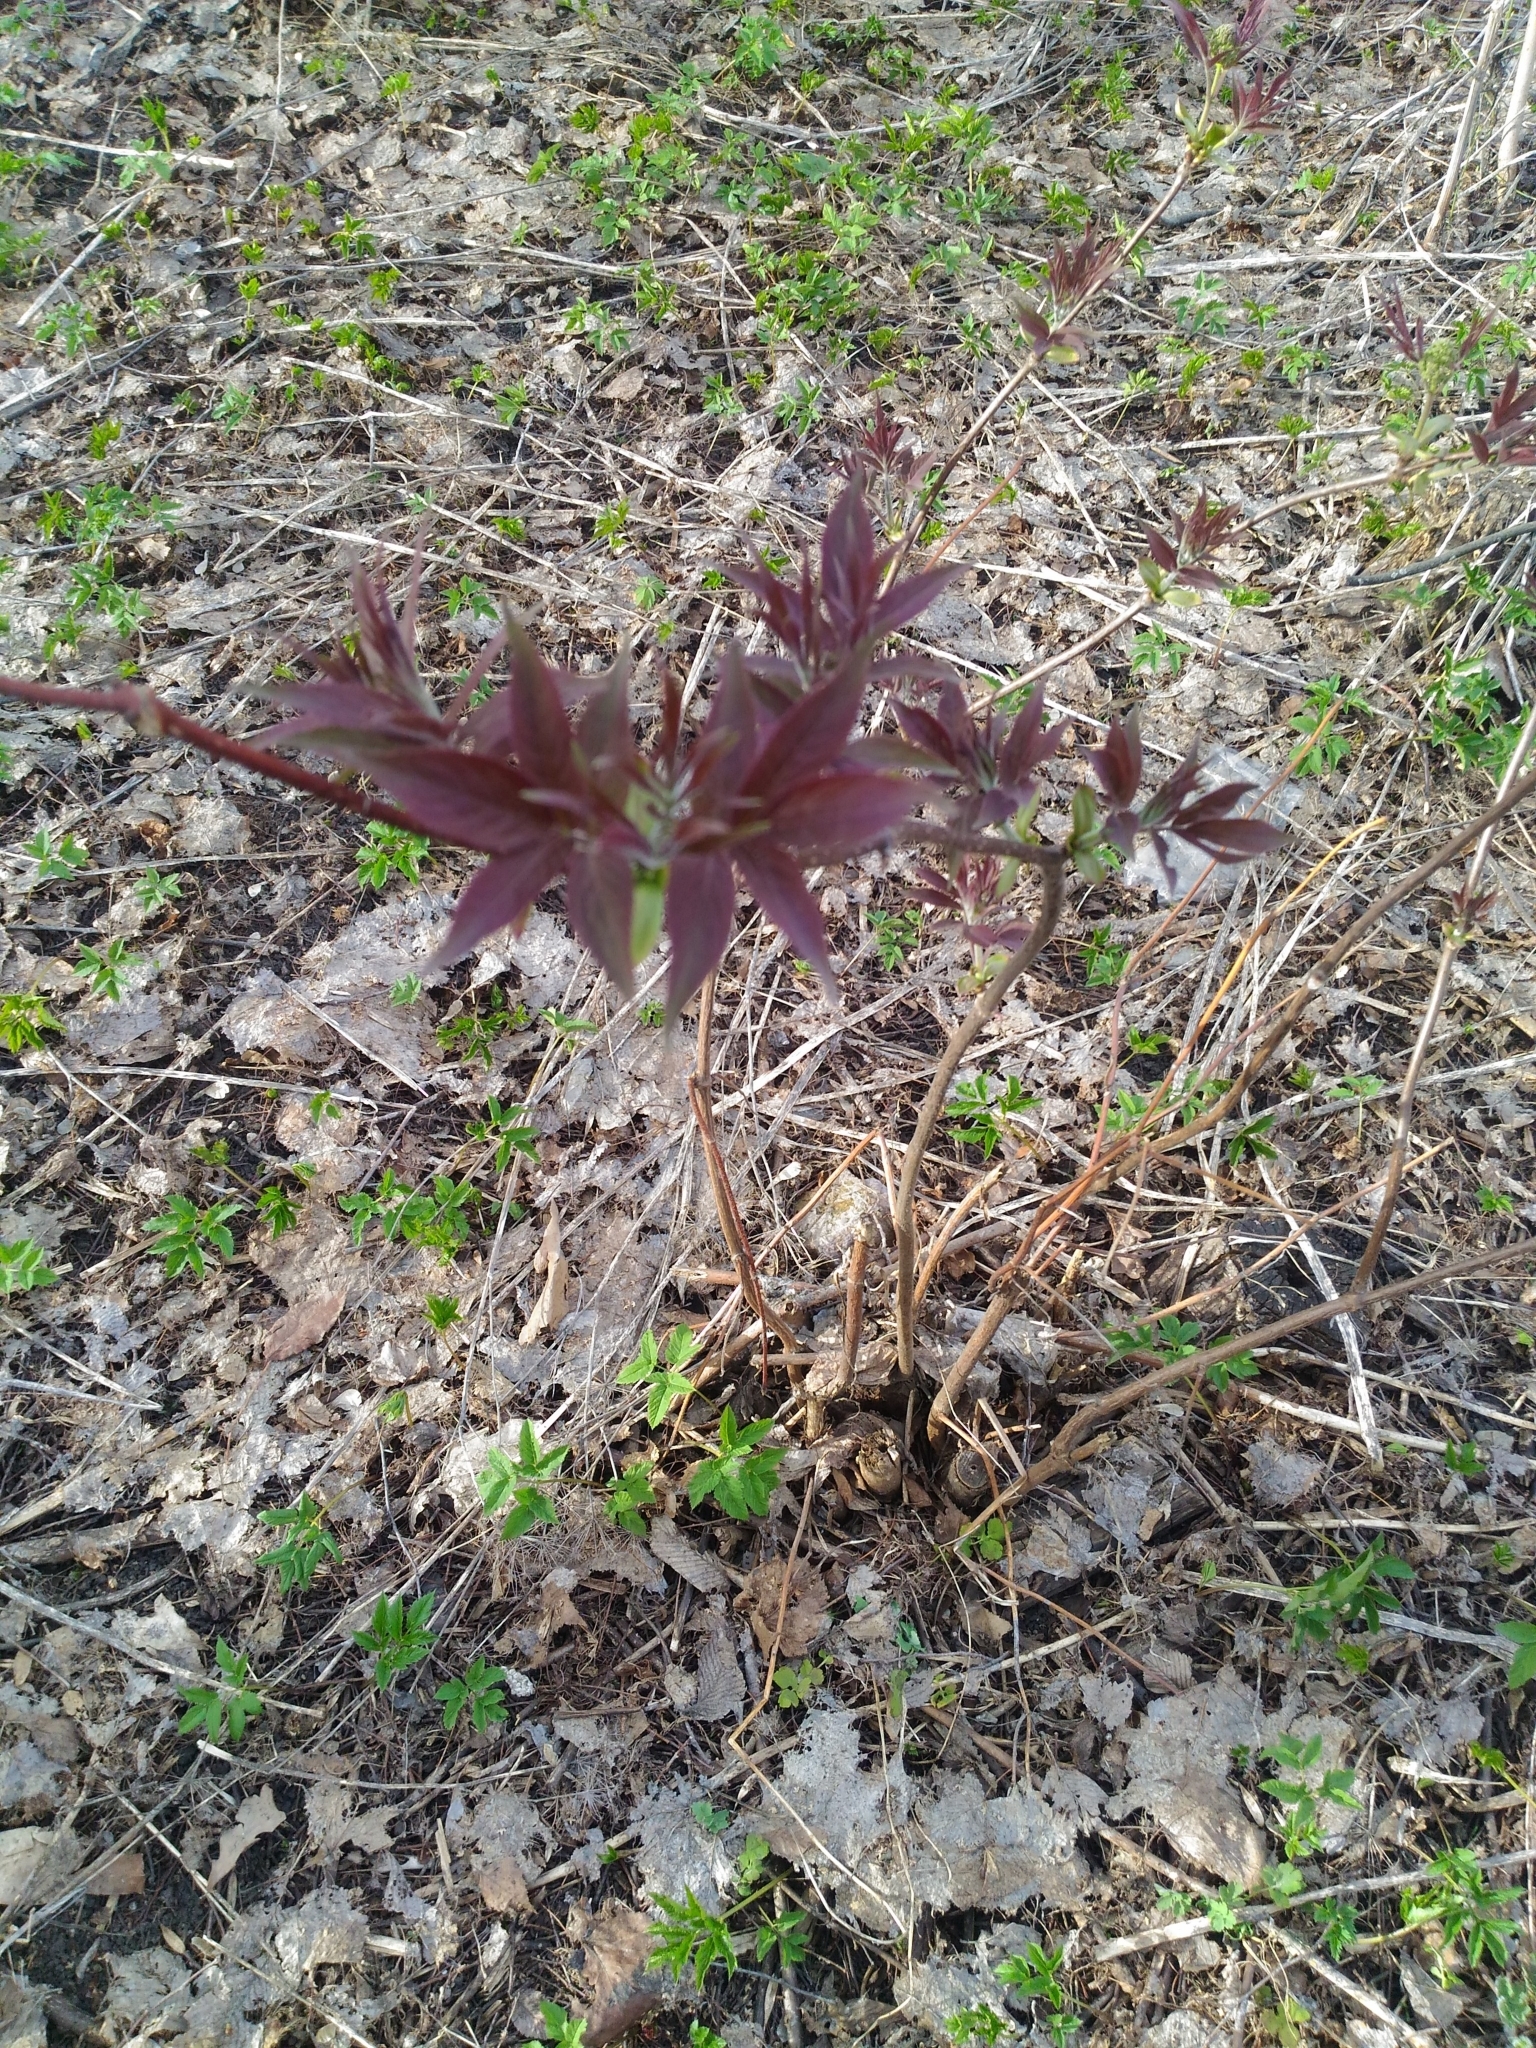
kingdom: Plantae
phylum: Tracheophyta
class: Magnoliopsida
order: Dipsacales
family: Viburnaceae
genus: Sambucus
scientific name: Sambucus racemosa
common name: Red-berried elder
